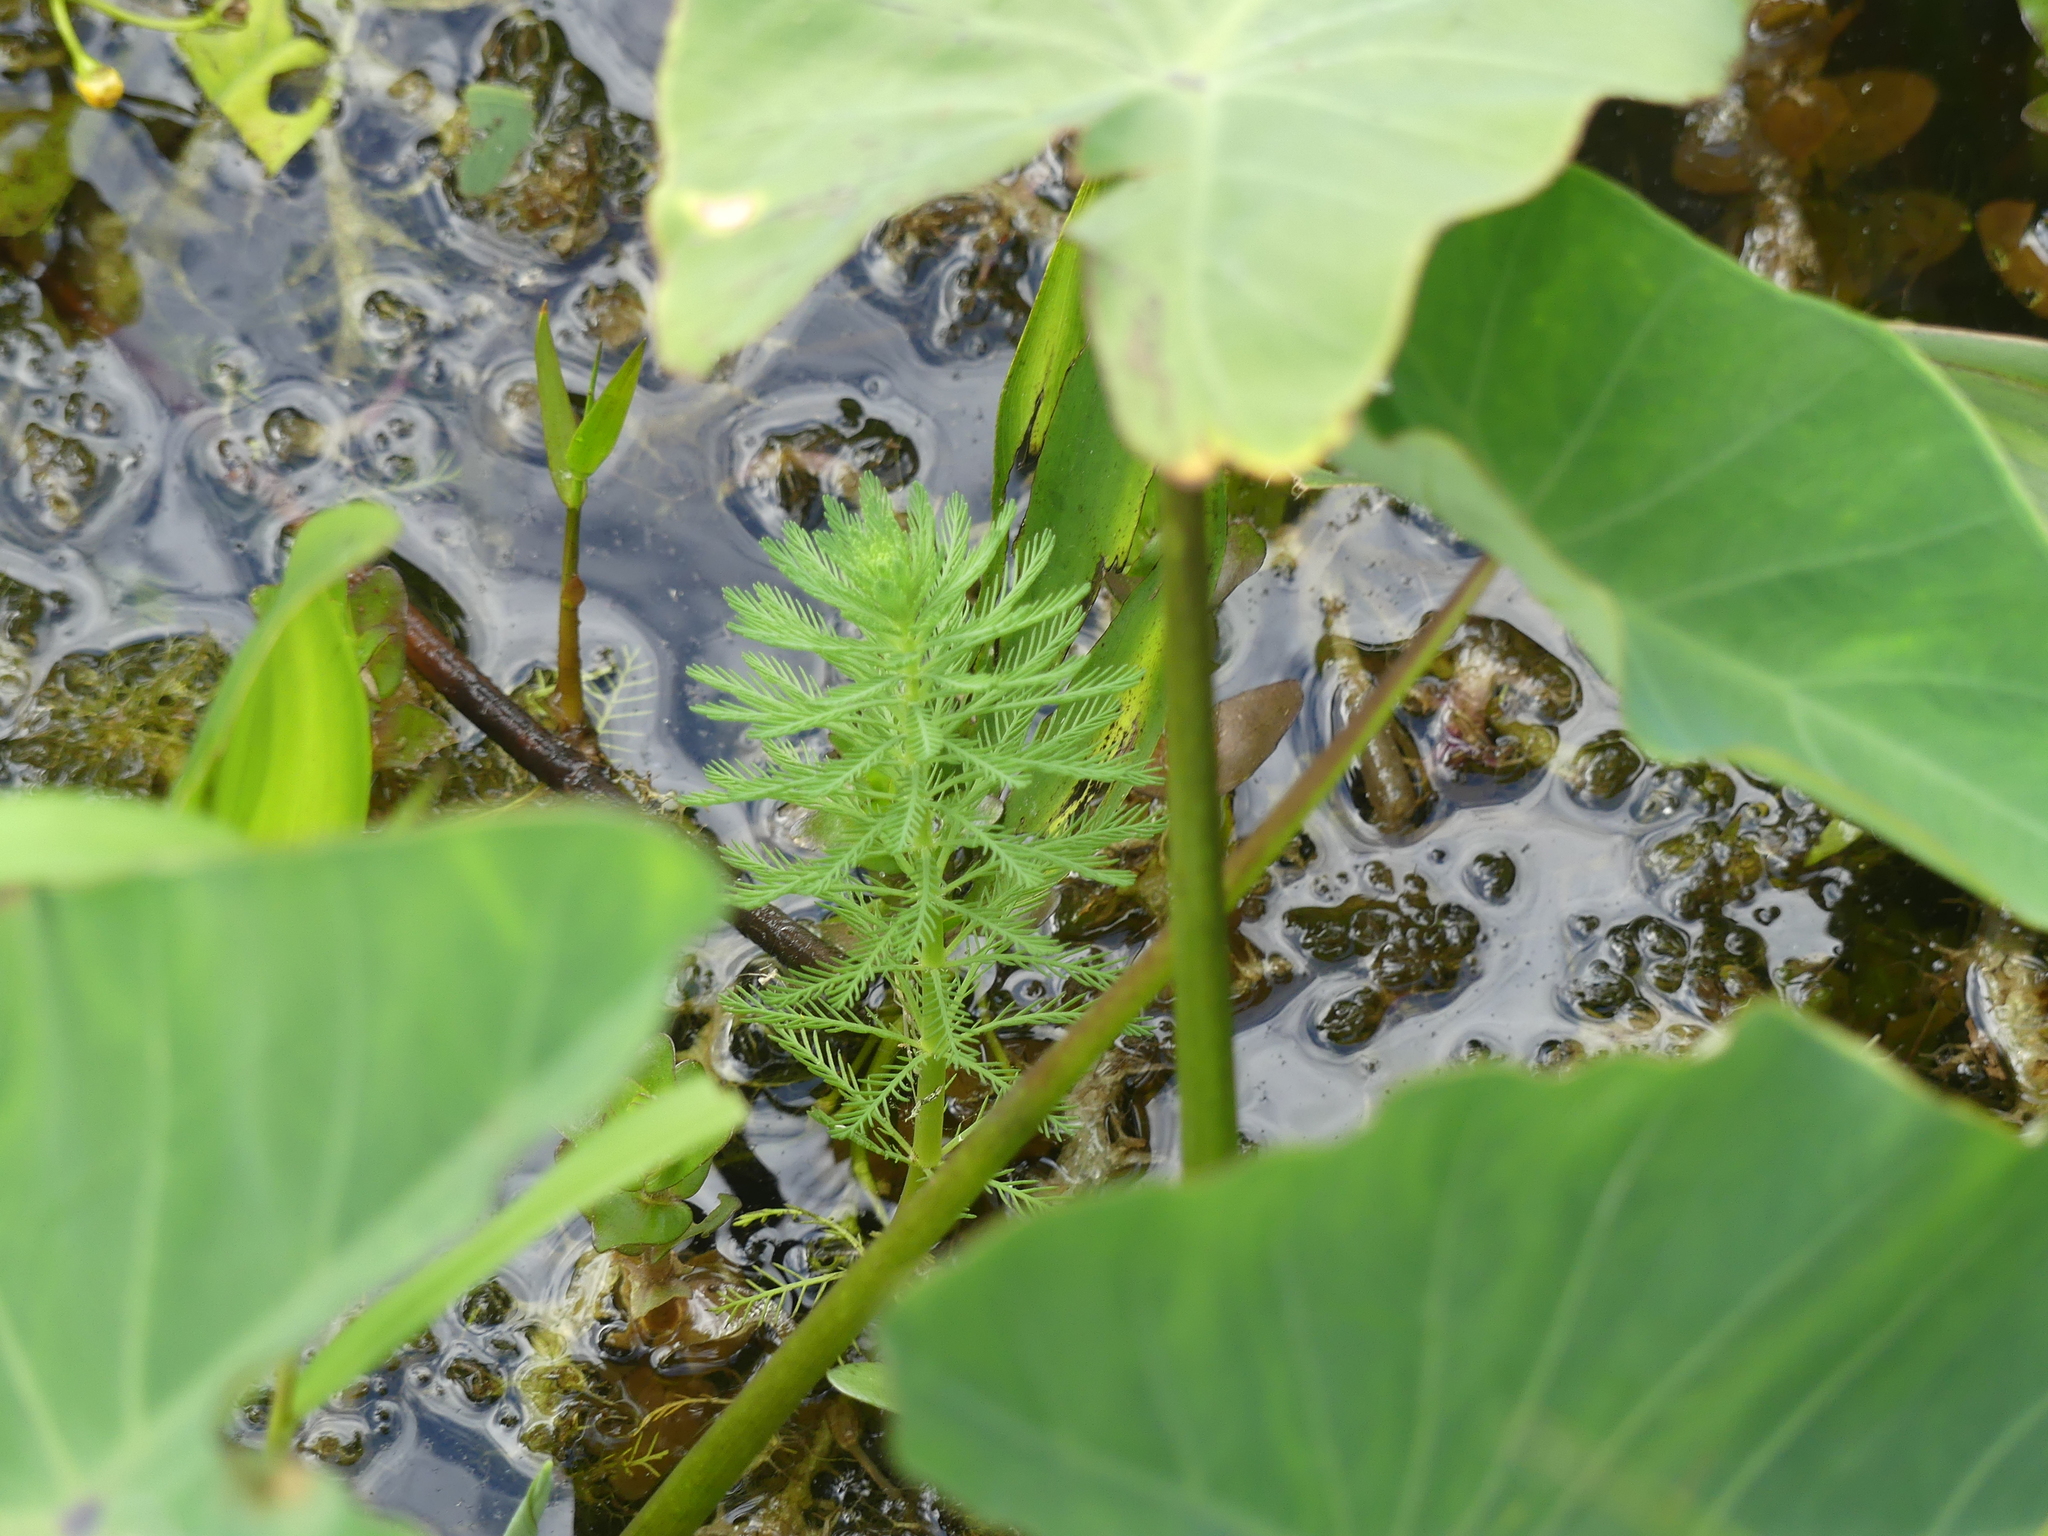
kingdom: Plantae
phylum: Tracheophyta
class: Magnoliopsida
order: Saxifragales
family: Haloragaceae
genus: Myriophyllum
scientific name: Myriophyllum aquaticum
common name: Parrot's feather
